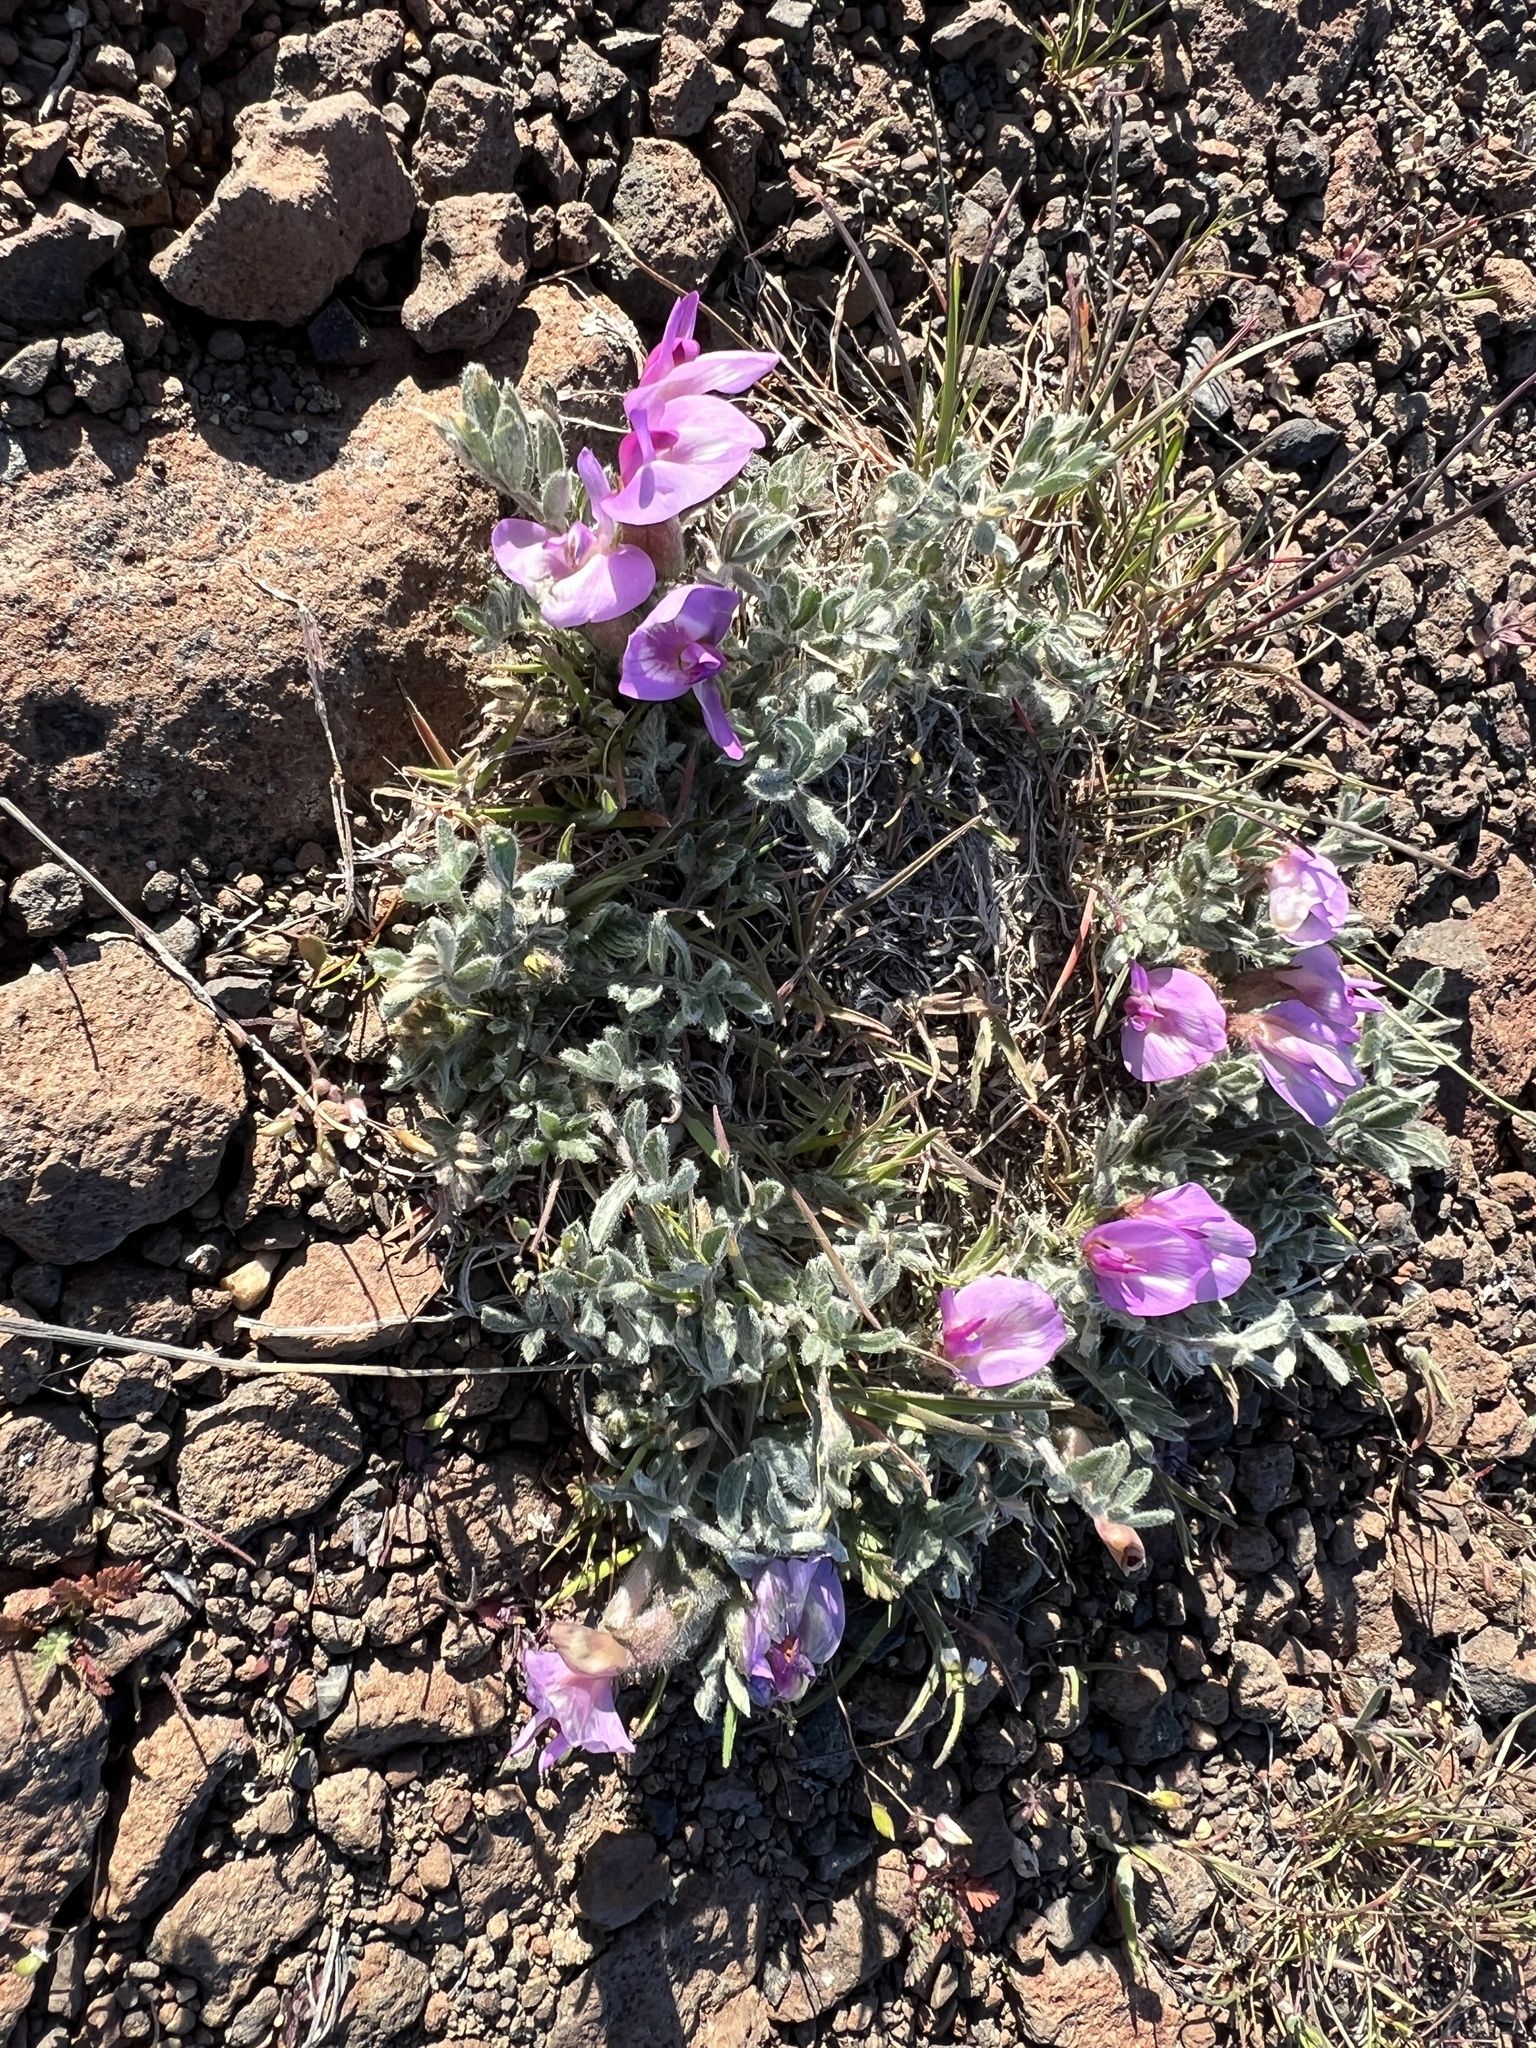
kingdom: Plantae
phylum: Tracheophyta
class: Magnoliopsida
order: Fabales
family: Fabaceae
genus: Astragalus
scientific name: Astragalus purshii
